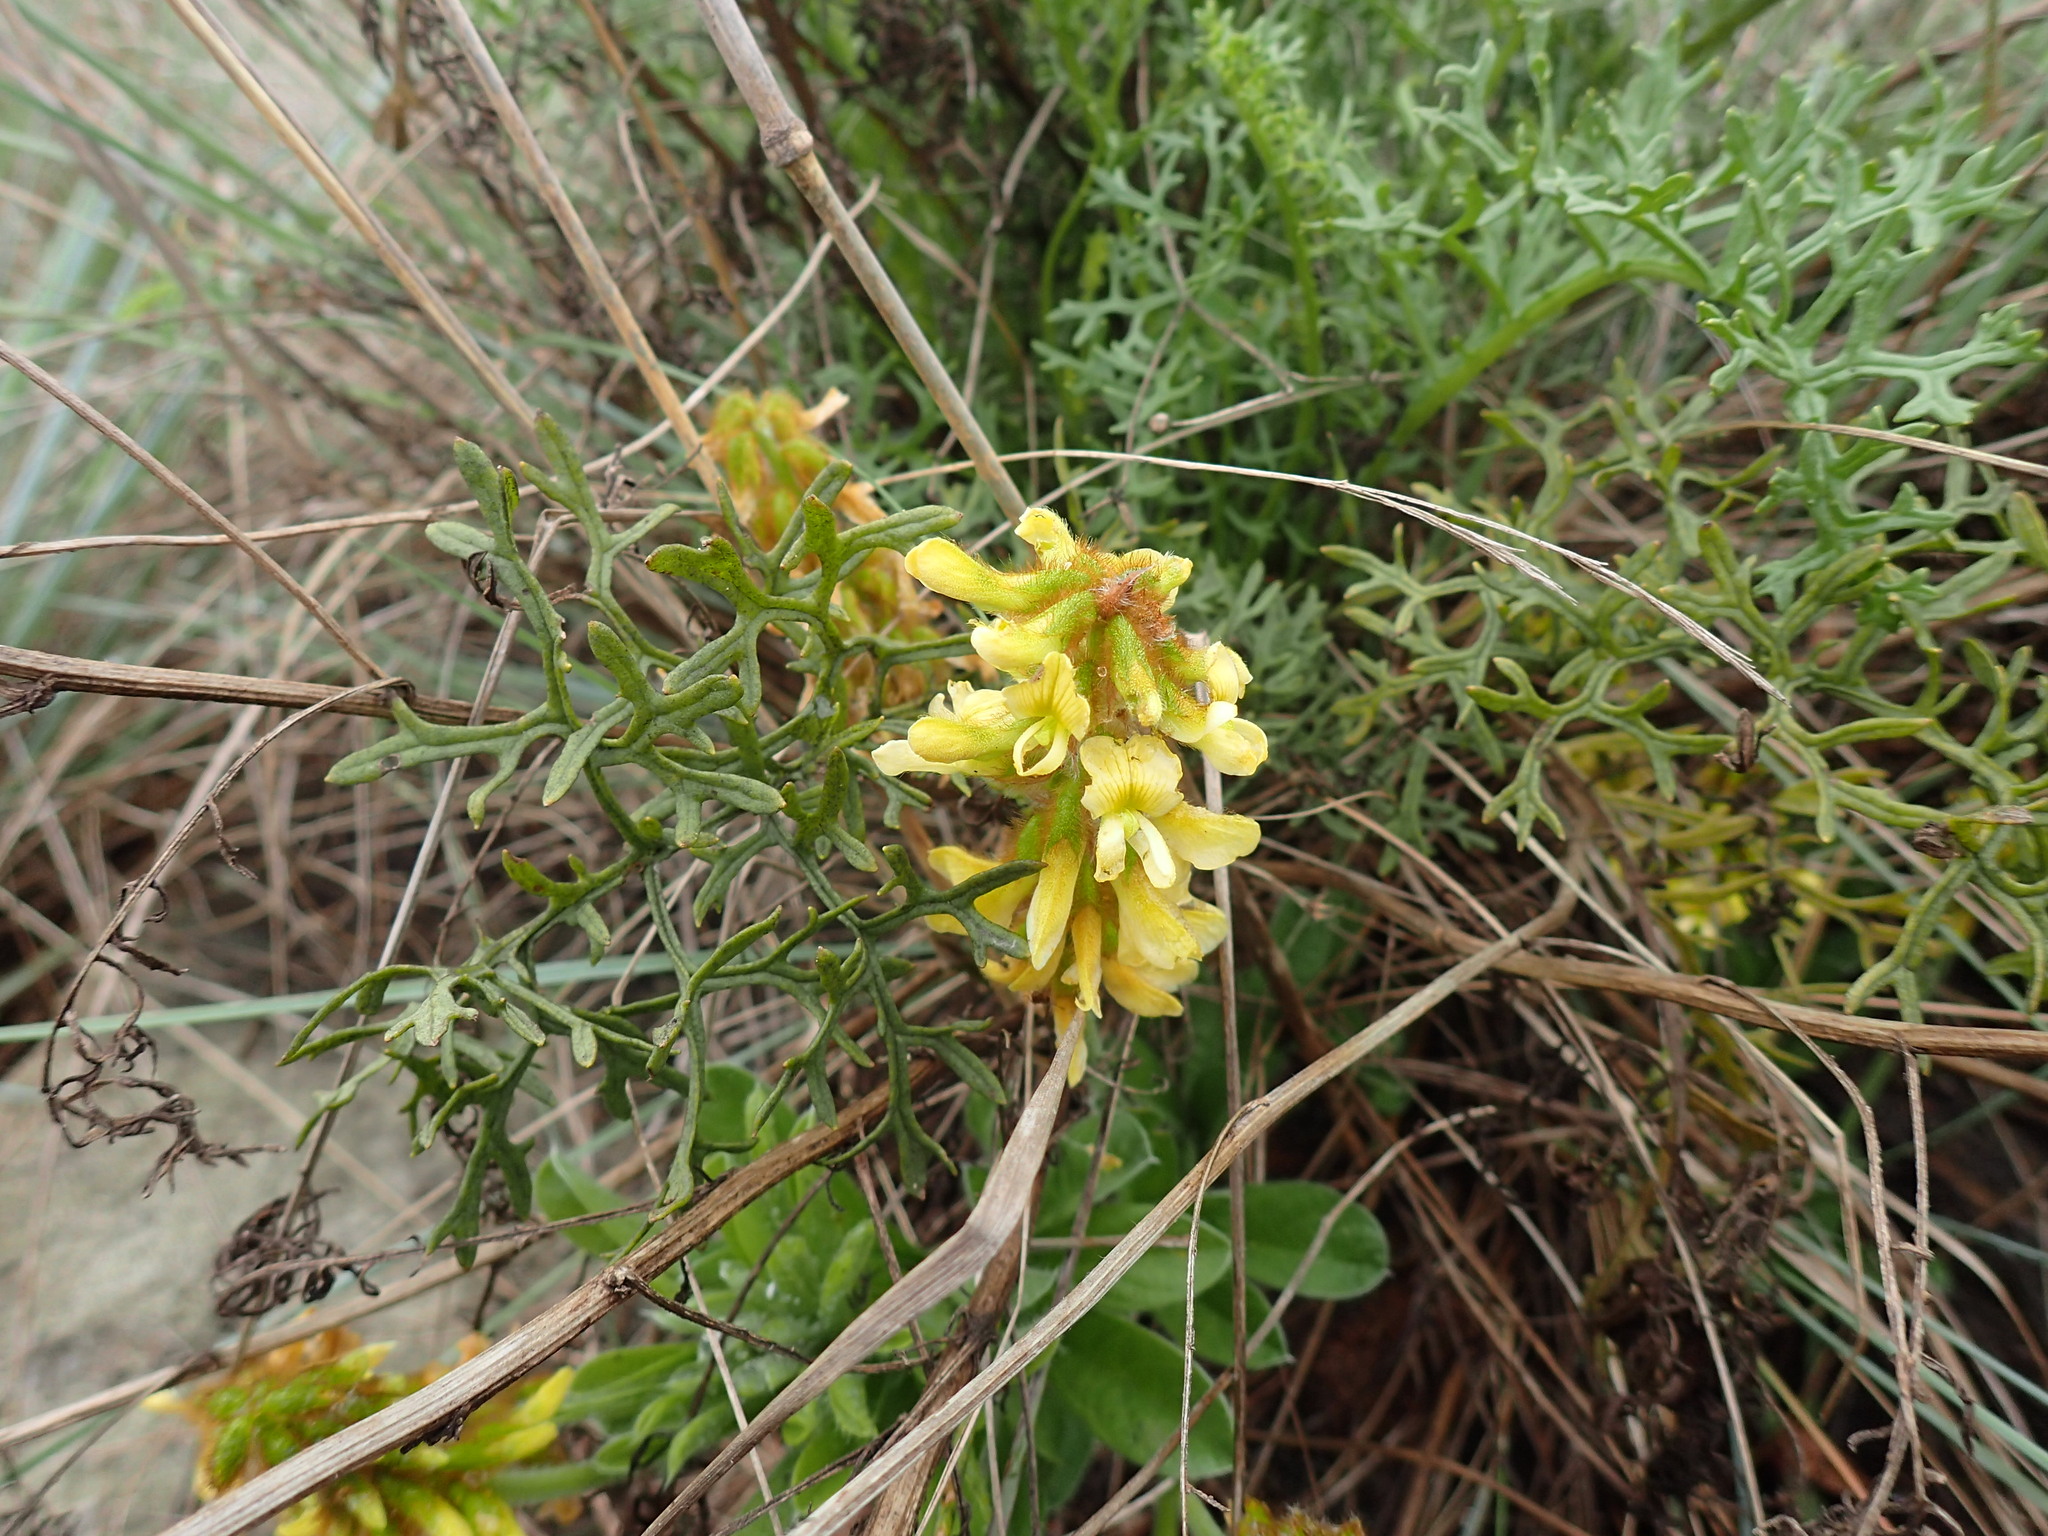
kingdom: Plantae
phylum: Tracheophyta
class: Magnoliopsida
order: Fabales
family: Fabaceae
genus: Eriosema
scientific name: Eriosema kraussianum
